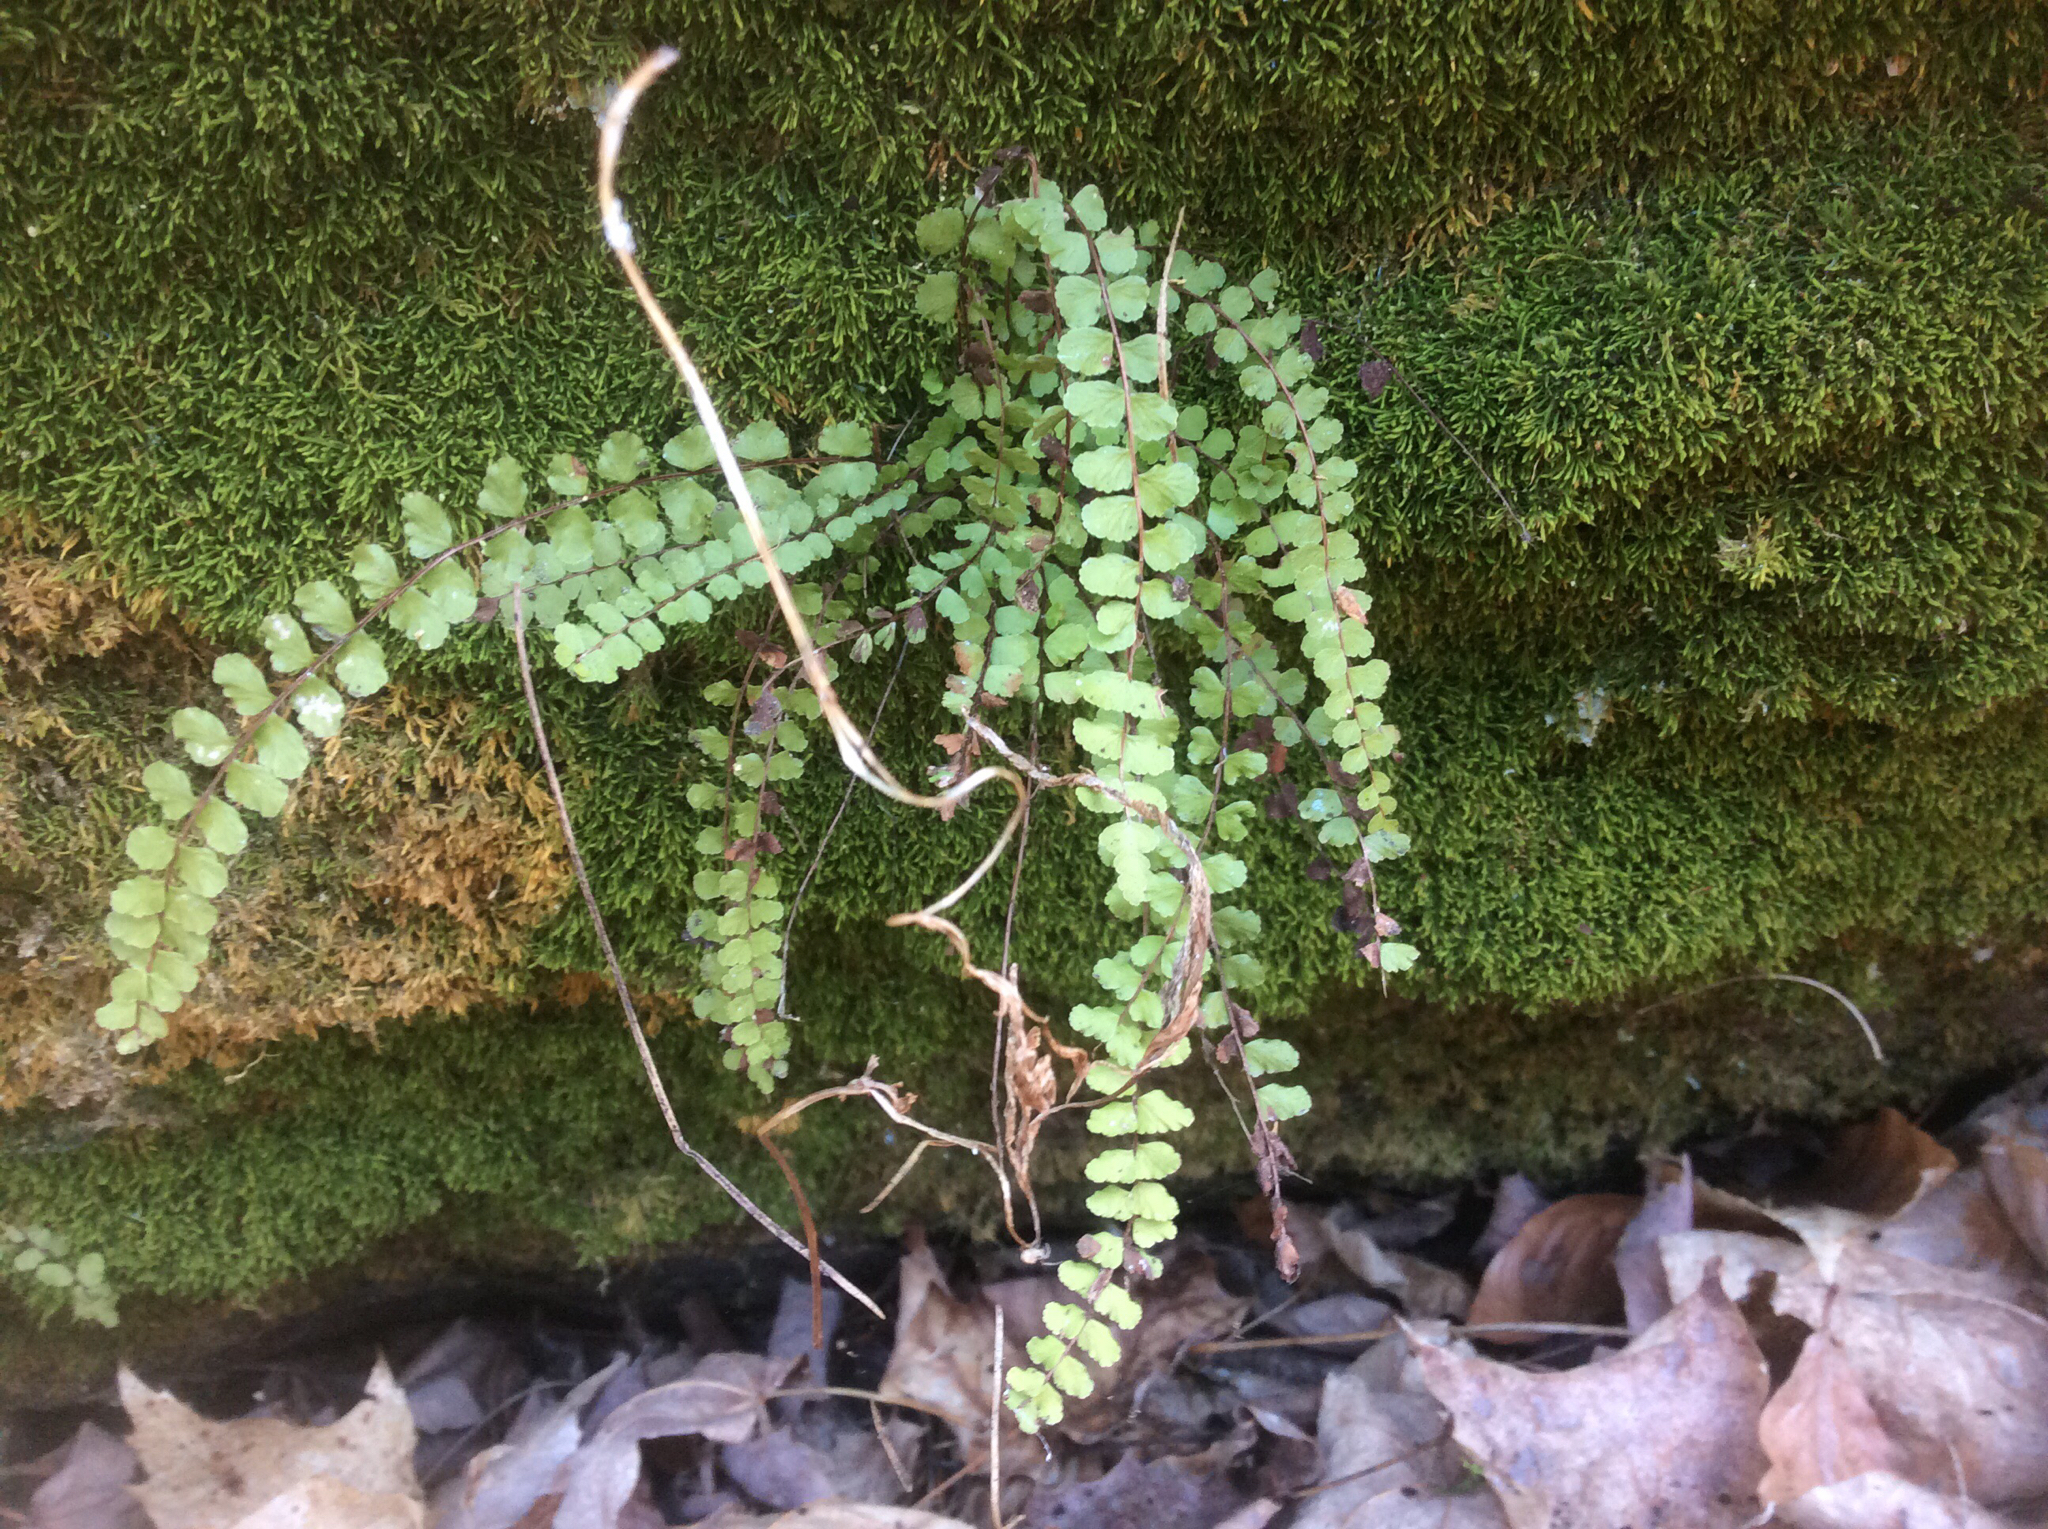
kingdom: Plantae
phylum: Tracheophyta
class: Polypodiopsida
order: Polypodiales
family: Aspleniaceae
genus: Asplenium
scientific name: Asplenium trichomanes
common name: Maidenhair spleenwort
